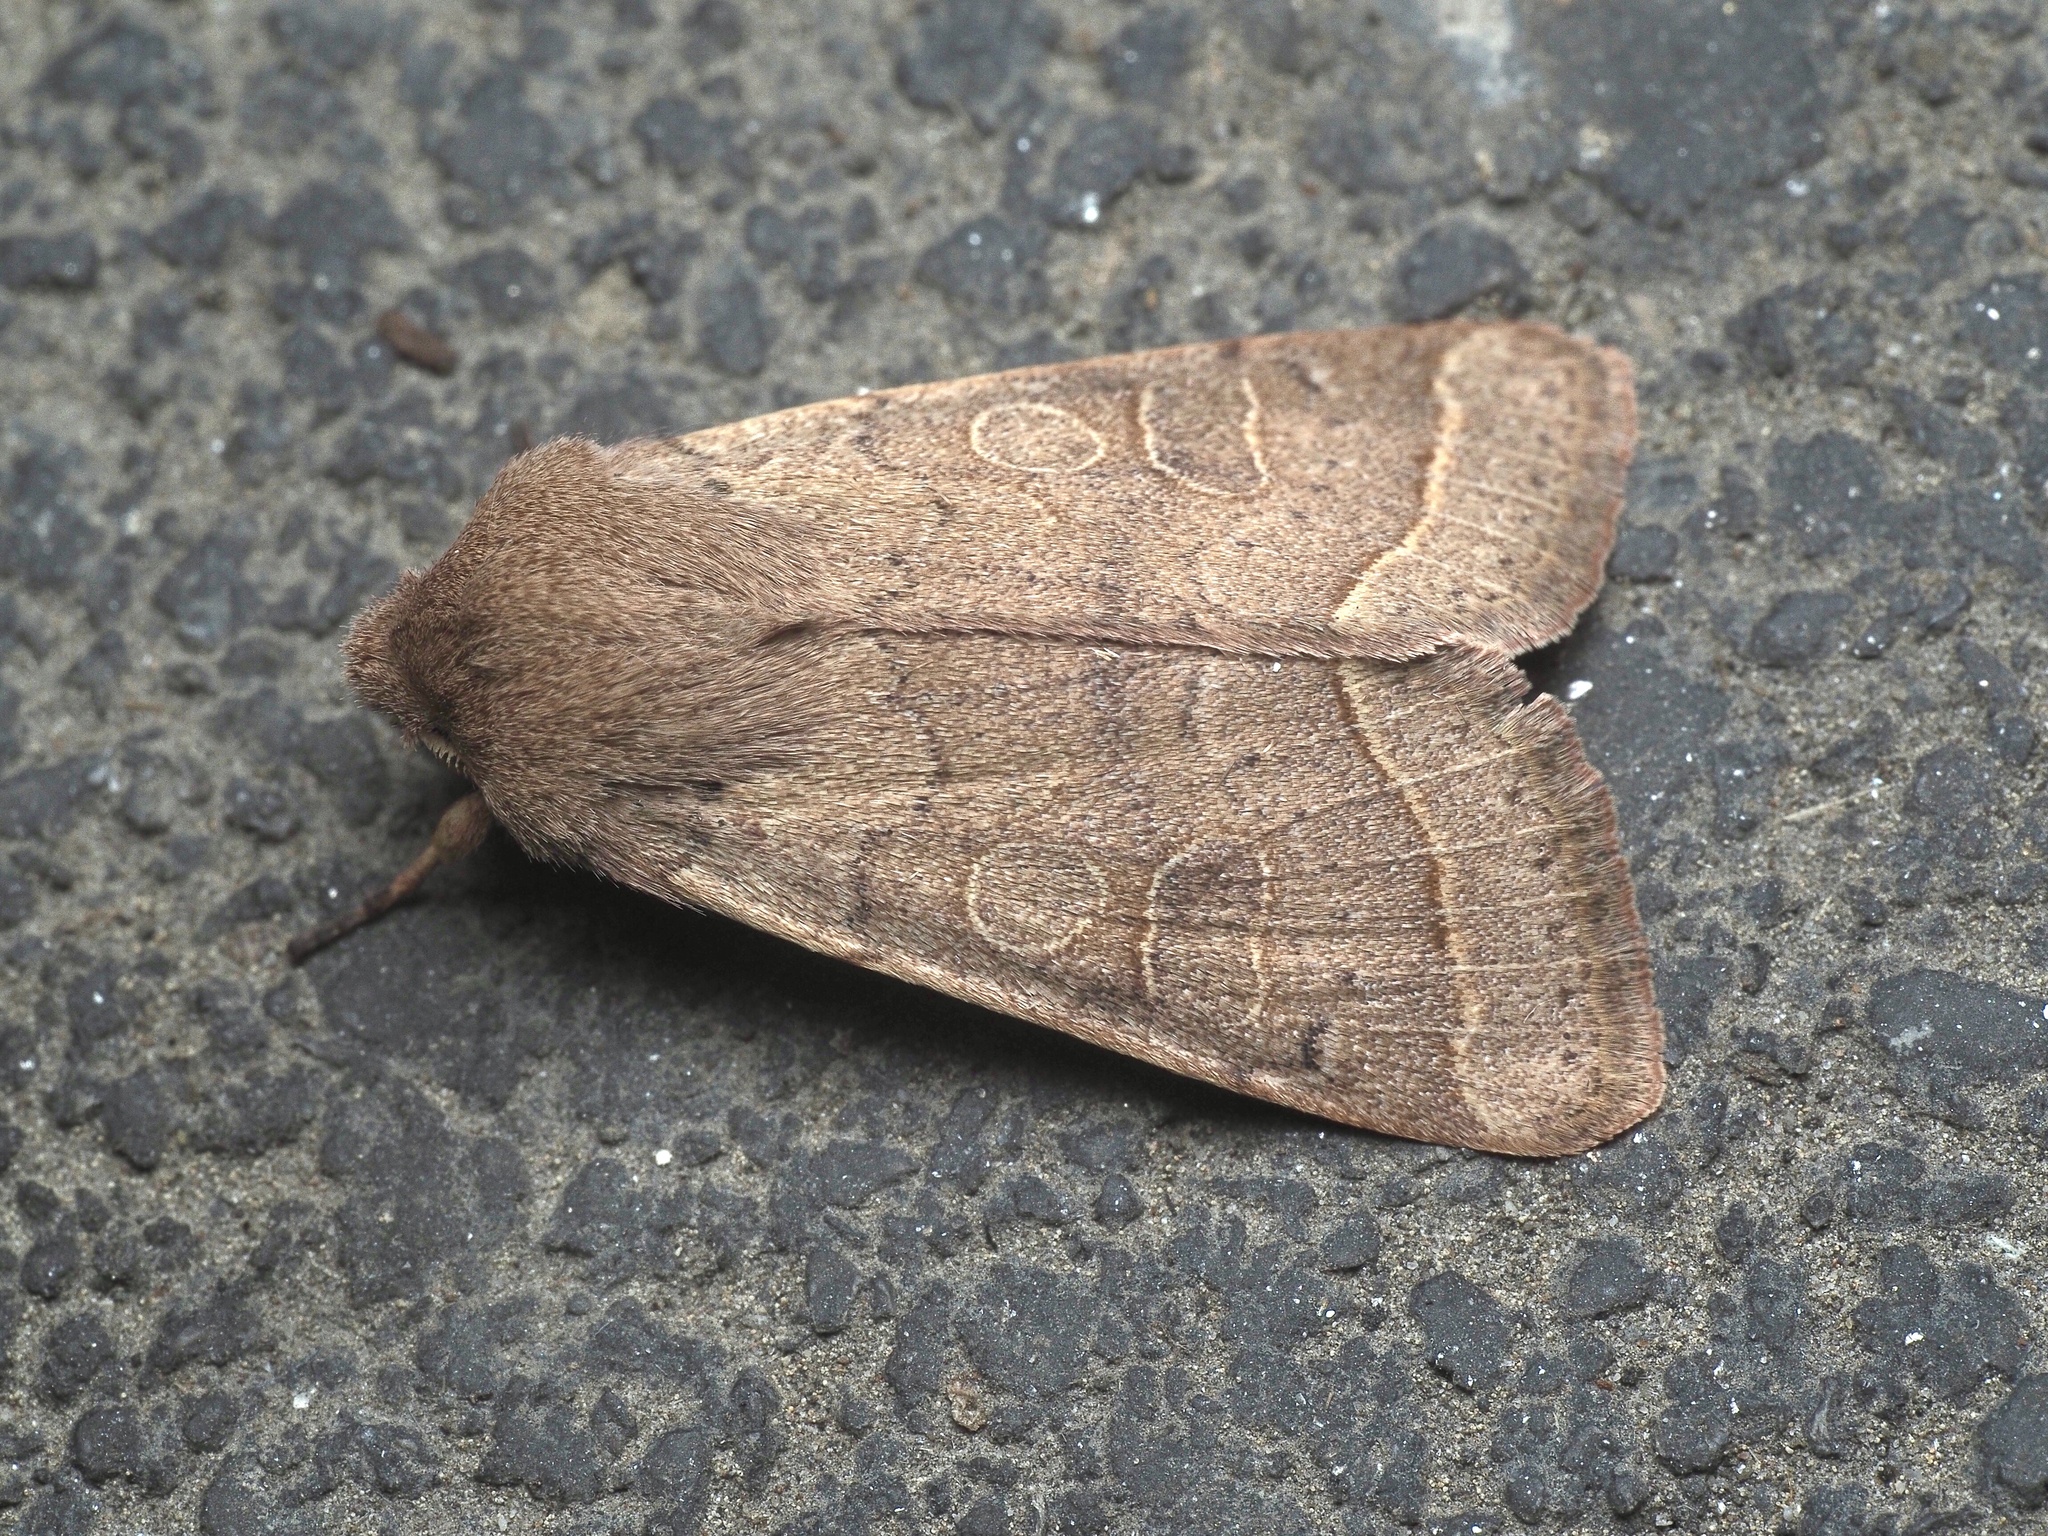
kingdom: Animalia
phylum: Arthropoda
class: Insecta
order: Lepidoptera
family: Noctuidae
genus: Orthosia
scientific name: Orthosia cerasi
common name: Common quaker
